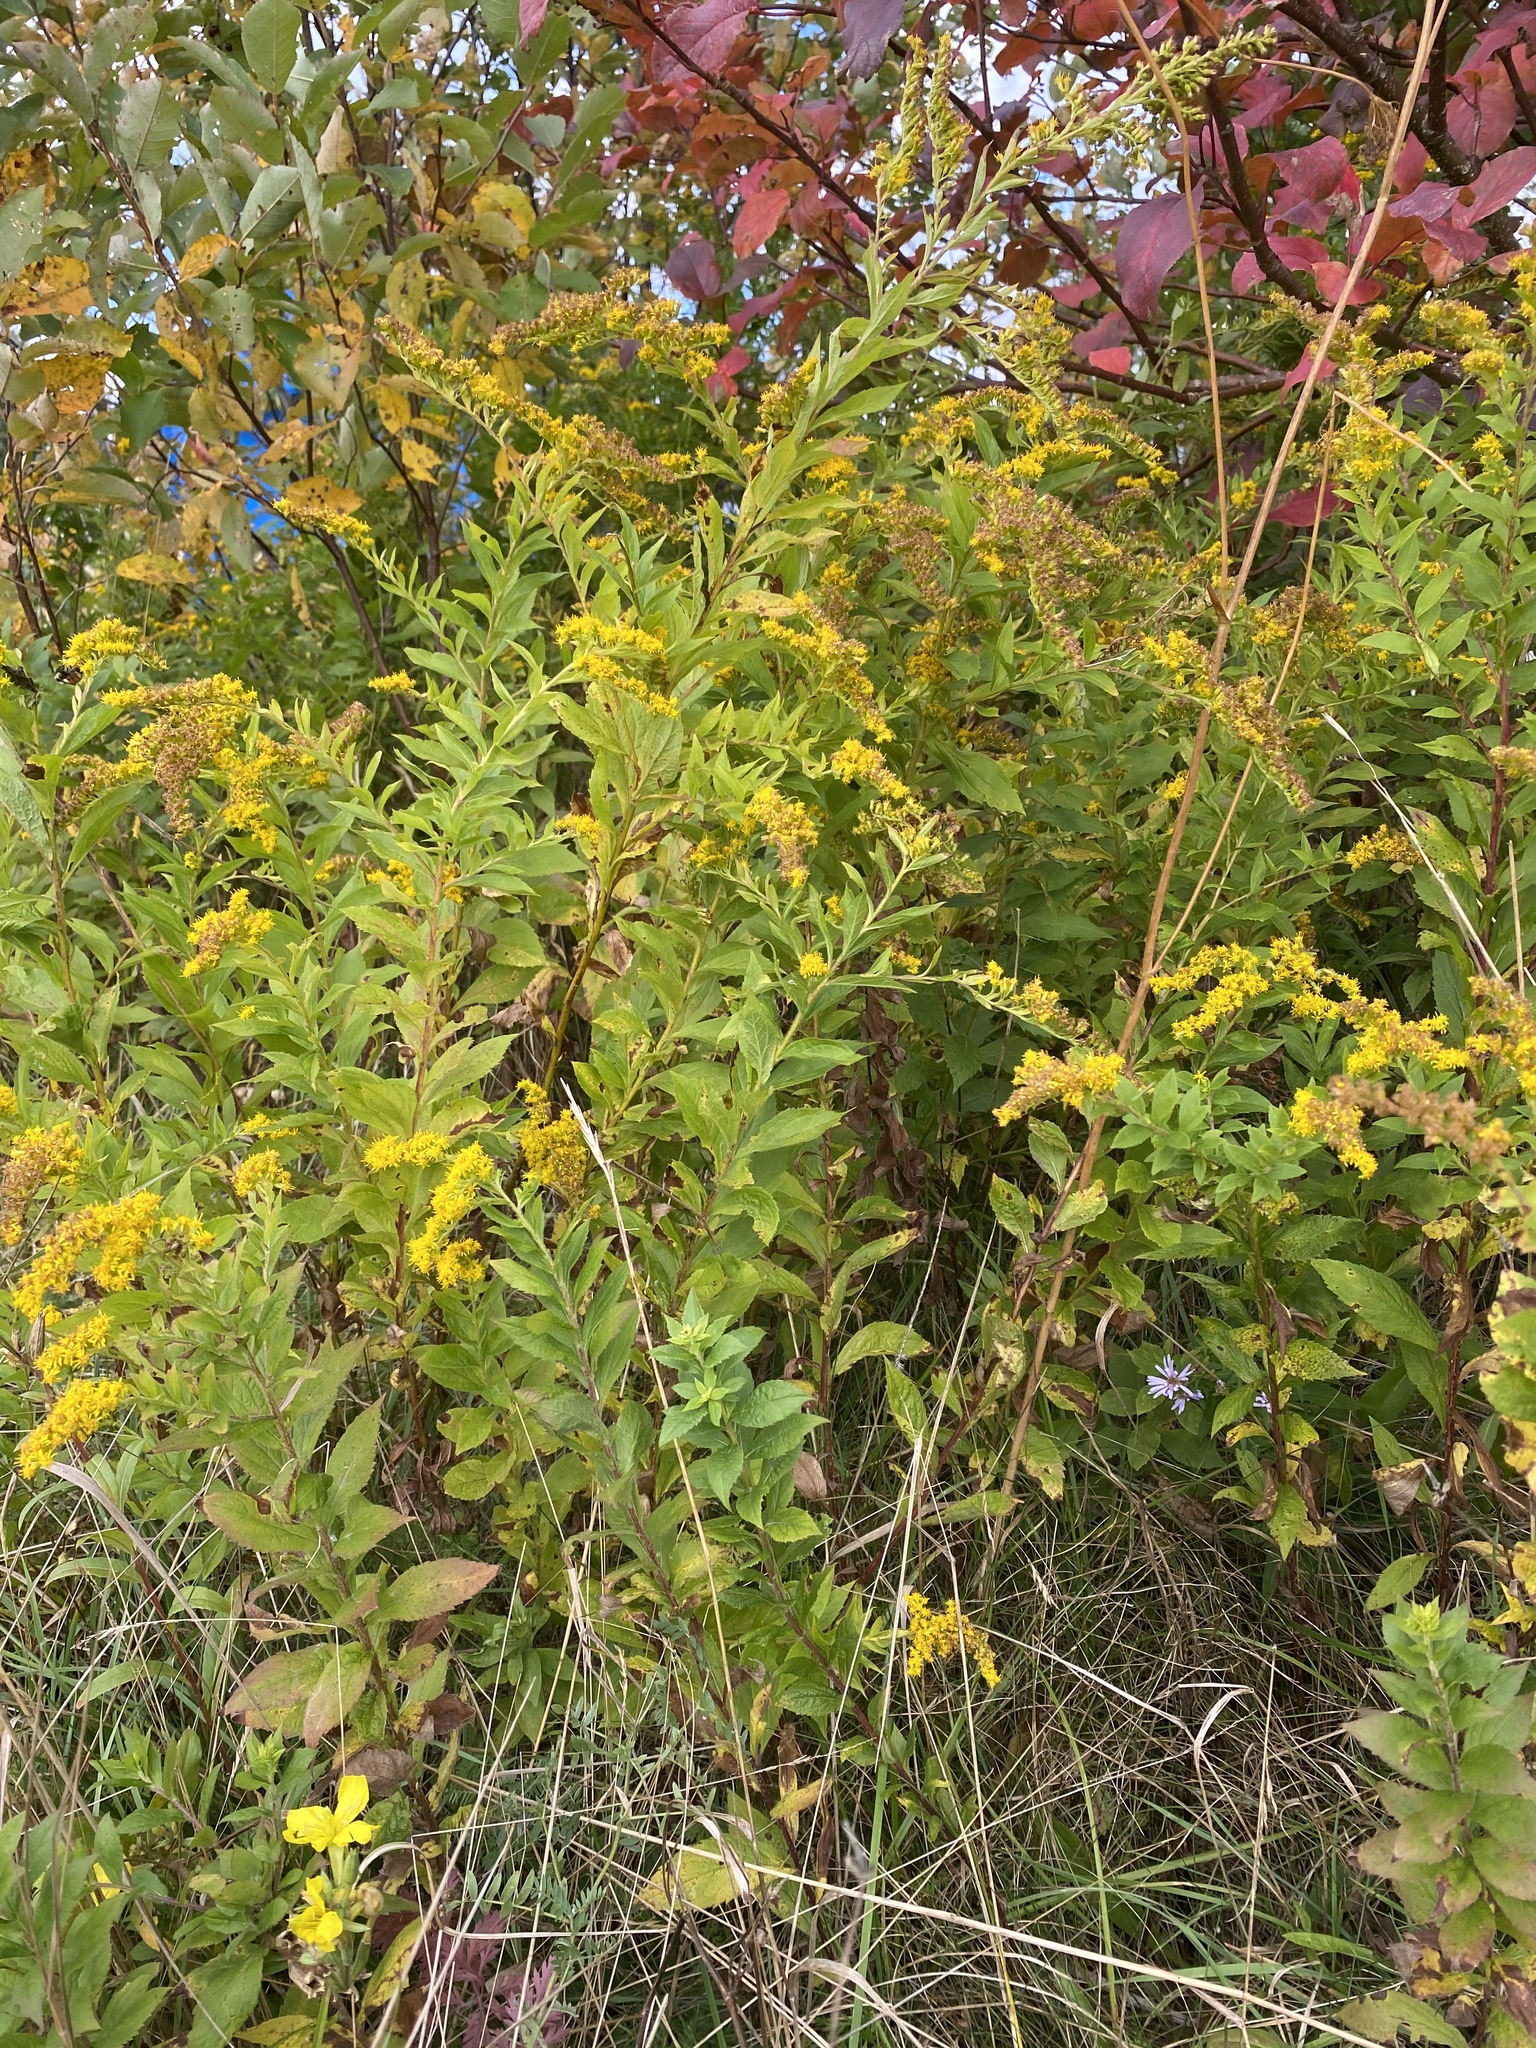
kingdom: Plantae
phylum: Tracheophyta
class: Magnoliopsida
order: Asterales
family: Asteraceae
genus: Solidago
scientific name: Solidago rugosa
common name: Rough-stemmed goldenrod
